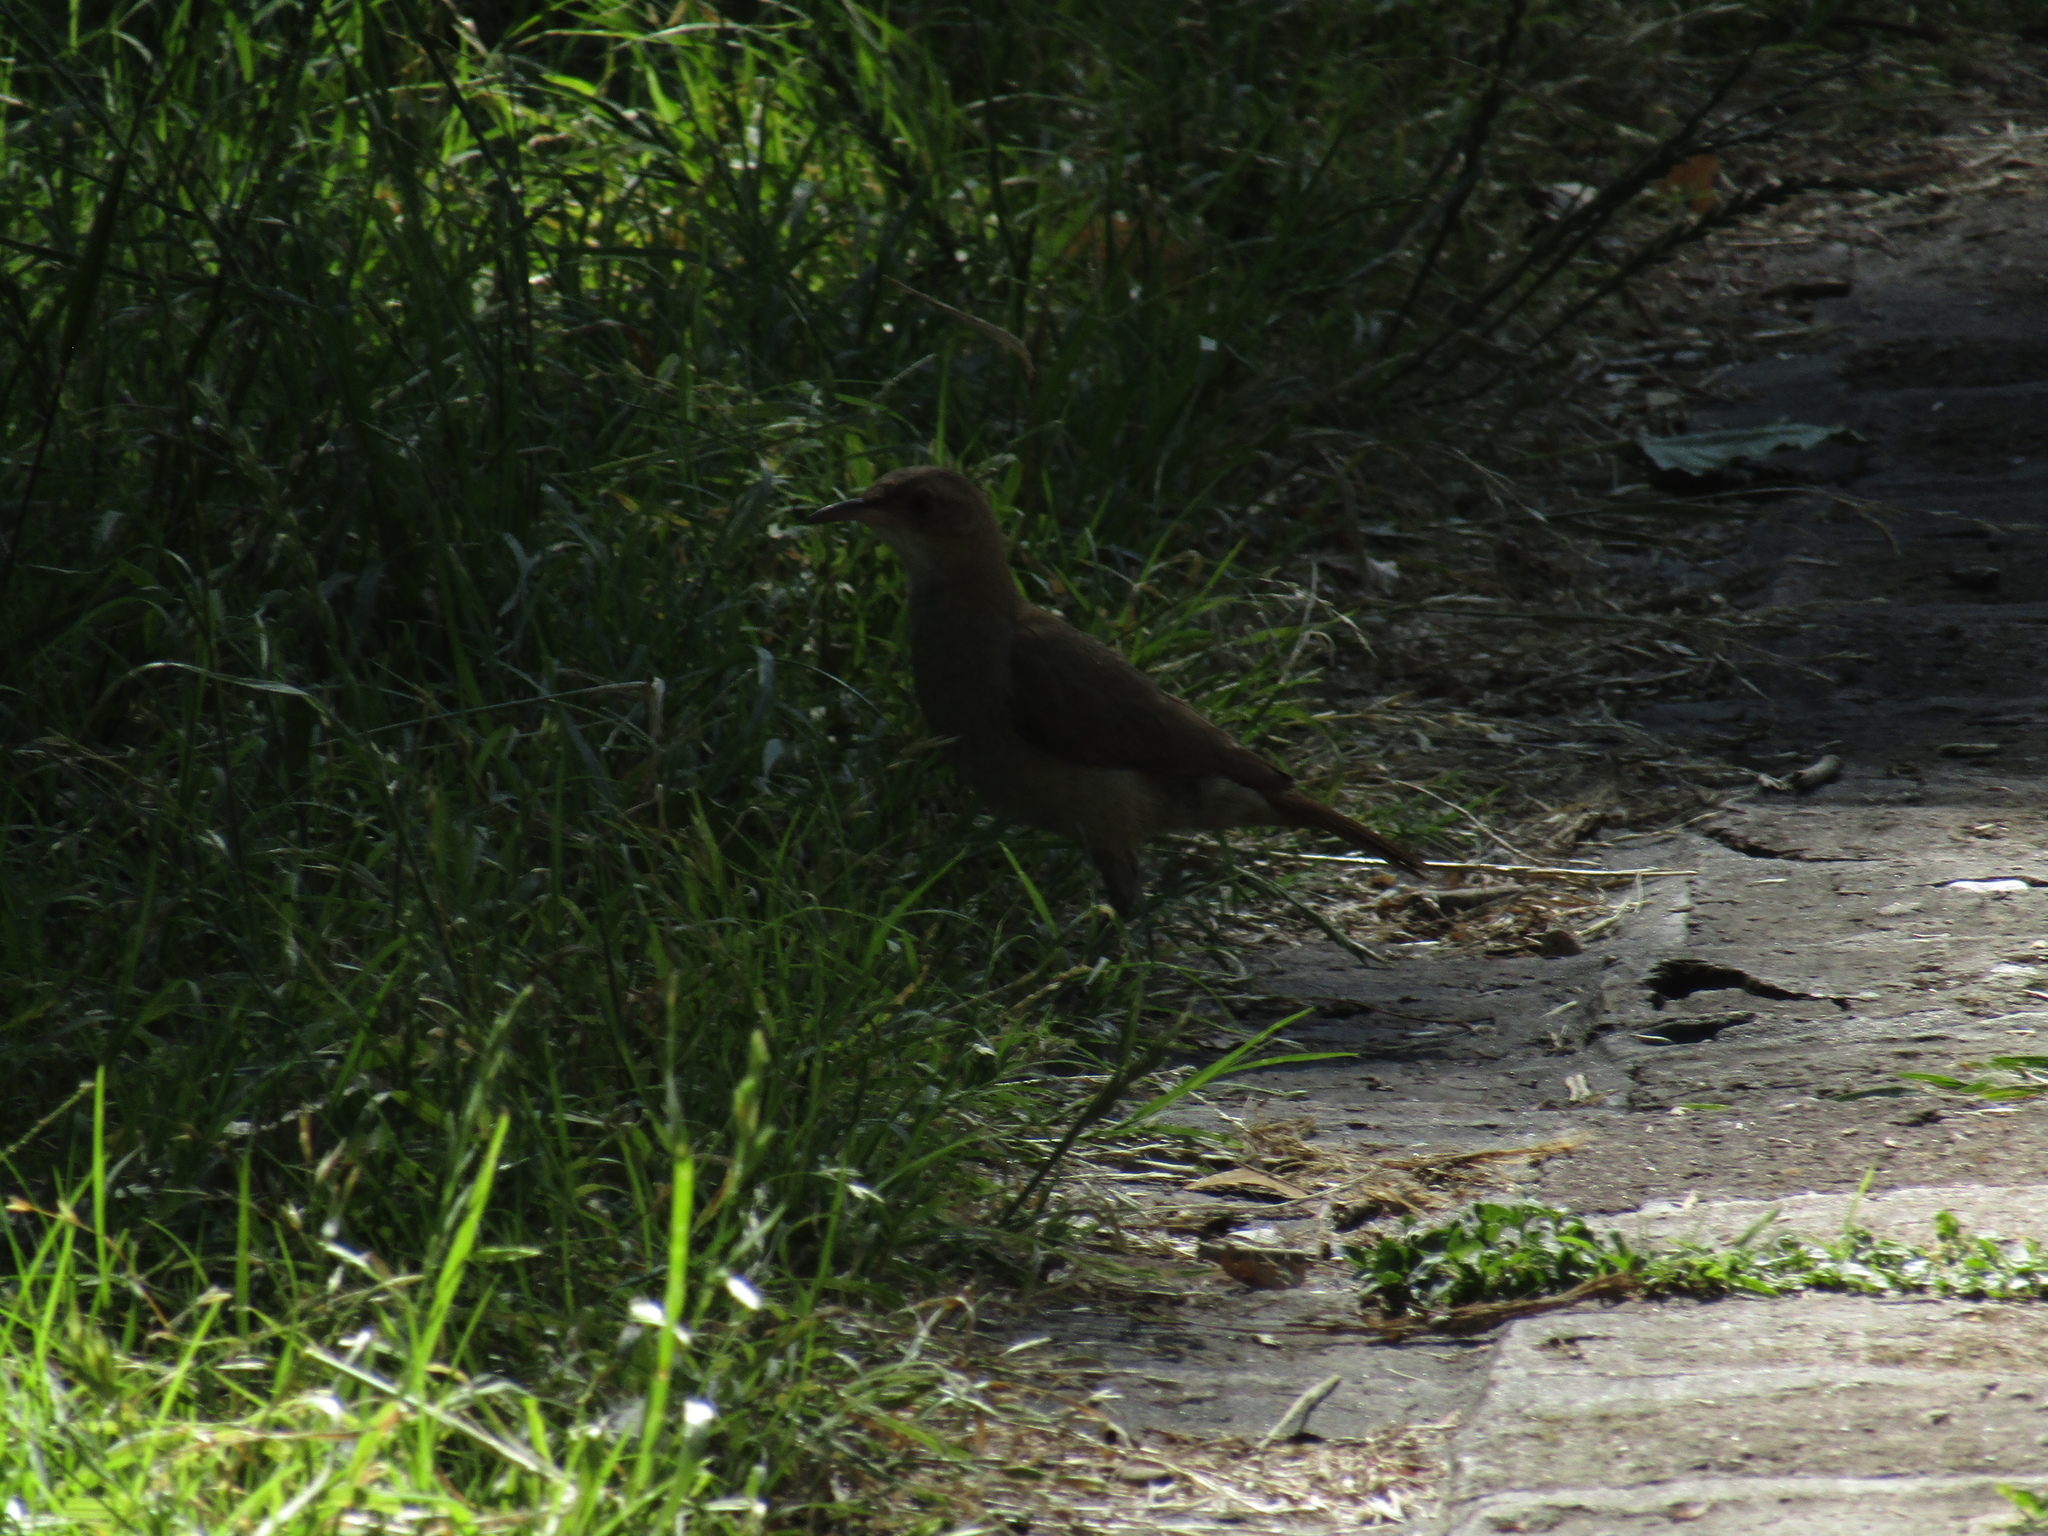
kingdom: Animalia
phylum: Chordata
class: Aves
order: Passeriformes
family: Furnariidae
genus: Furnarius
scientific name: Furnarius rufus
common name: Rufous hornero
